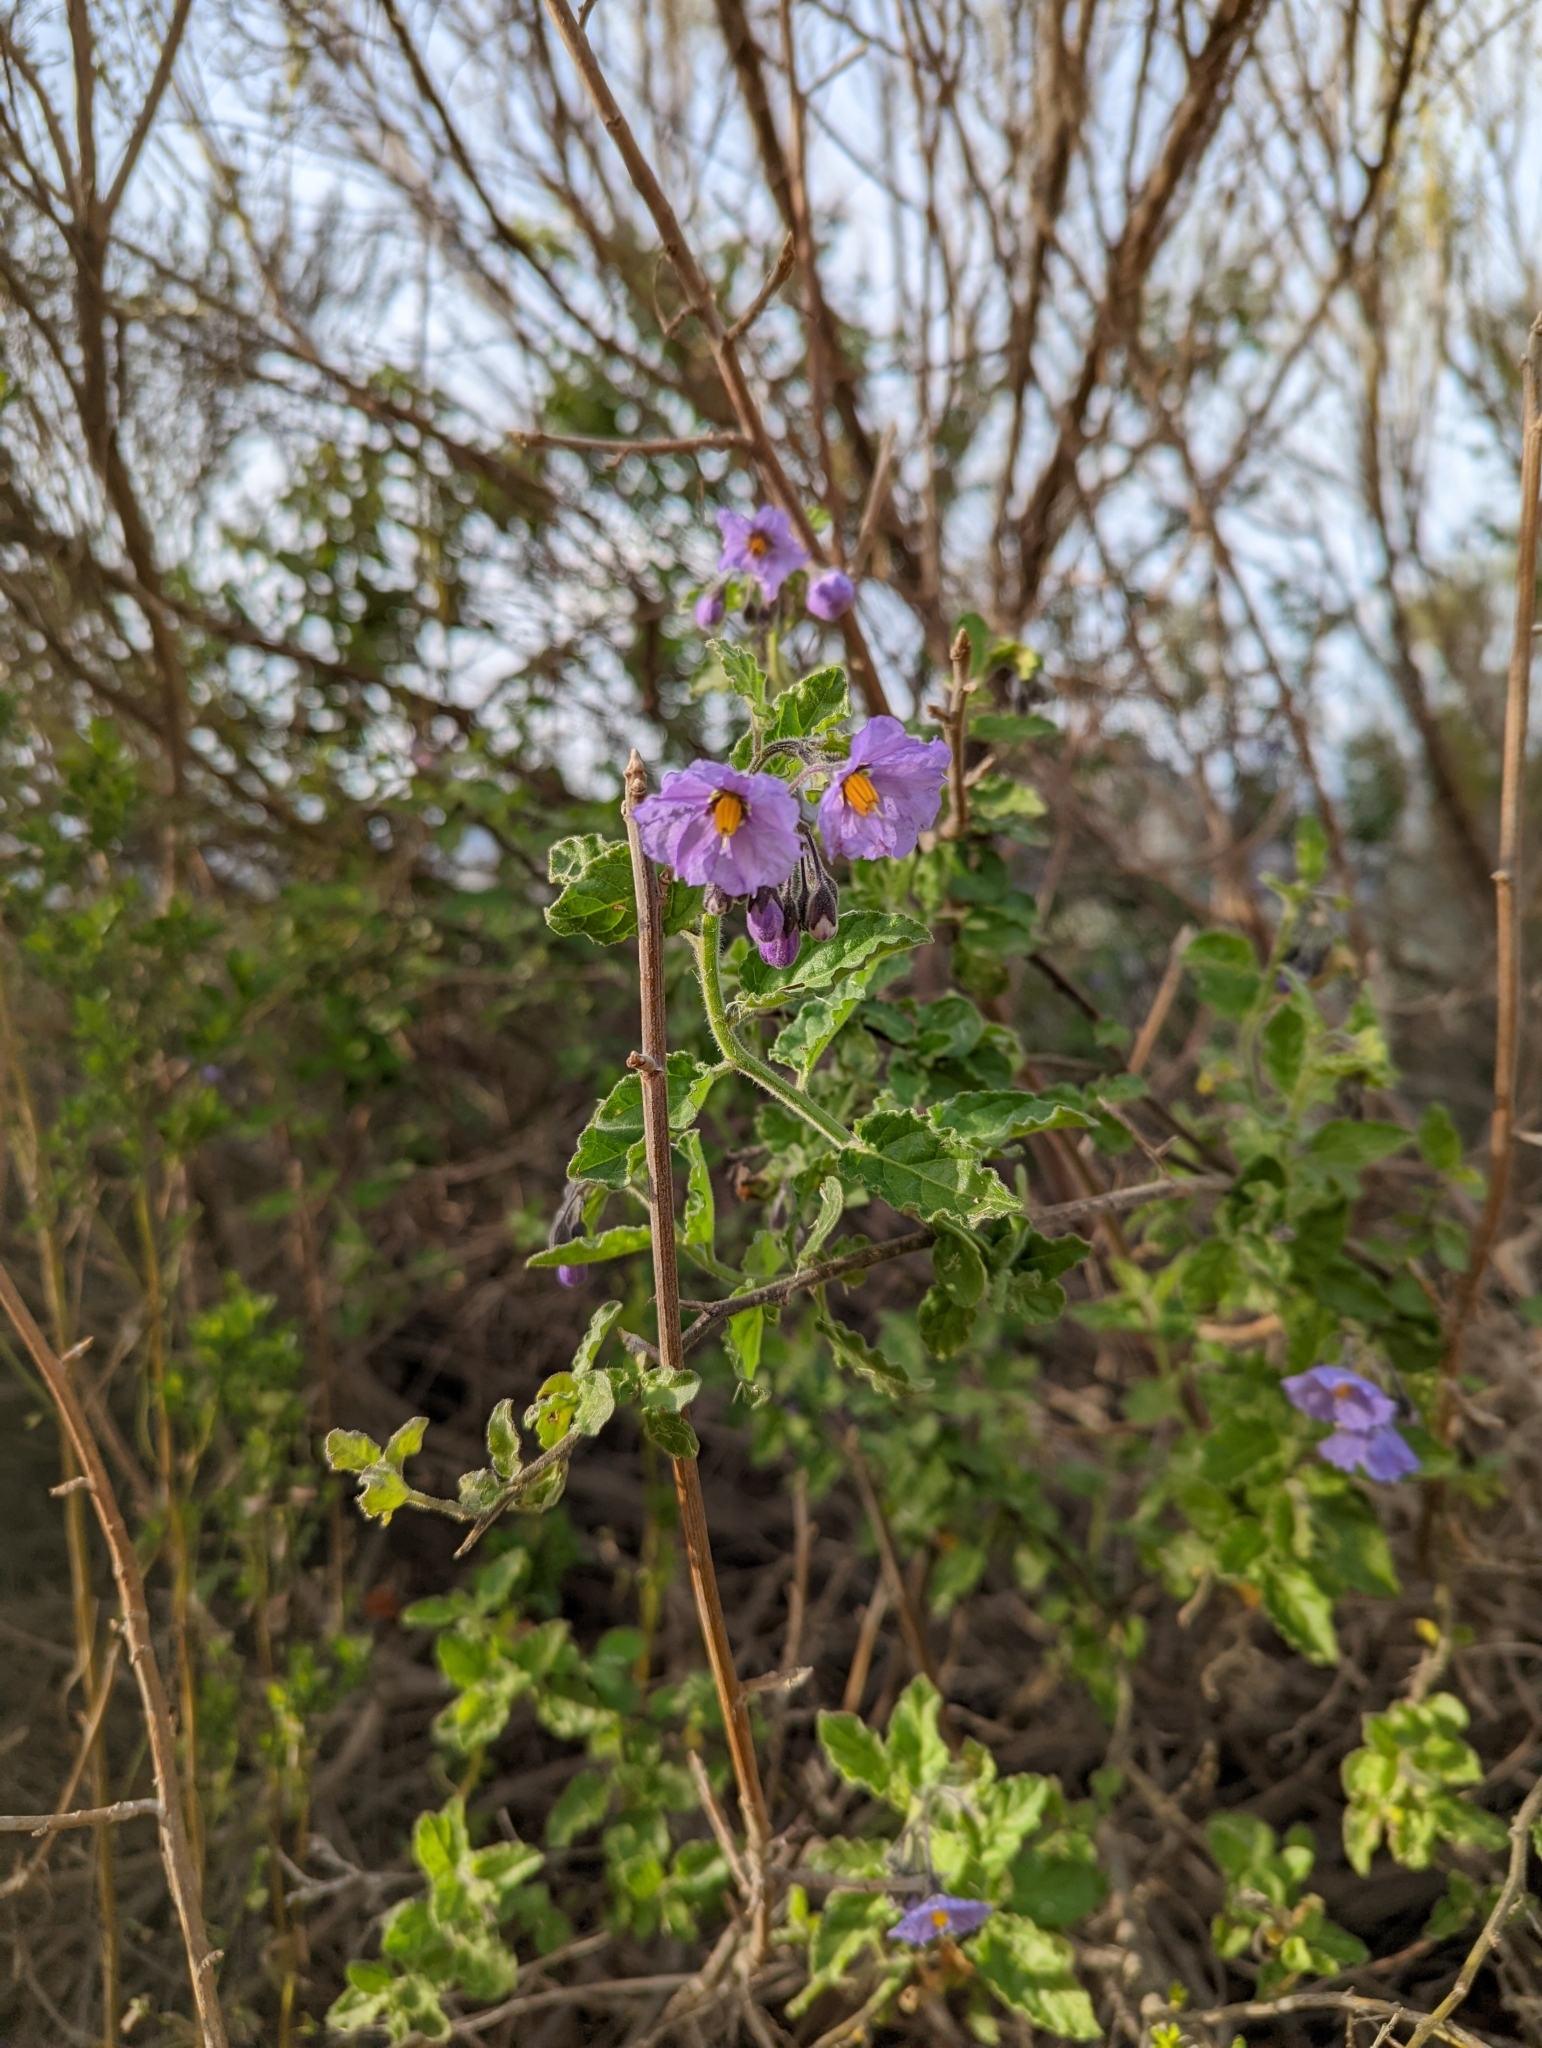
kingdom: Plantae
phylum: Tracheophyta
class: Magnoliopsida
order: Solanales
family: Solanaceae
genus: Solanum
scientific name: Solanum umbelliferum
